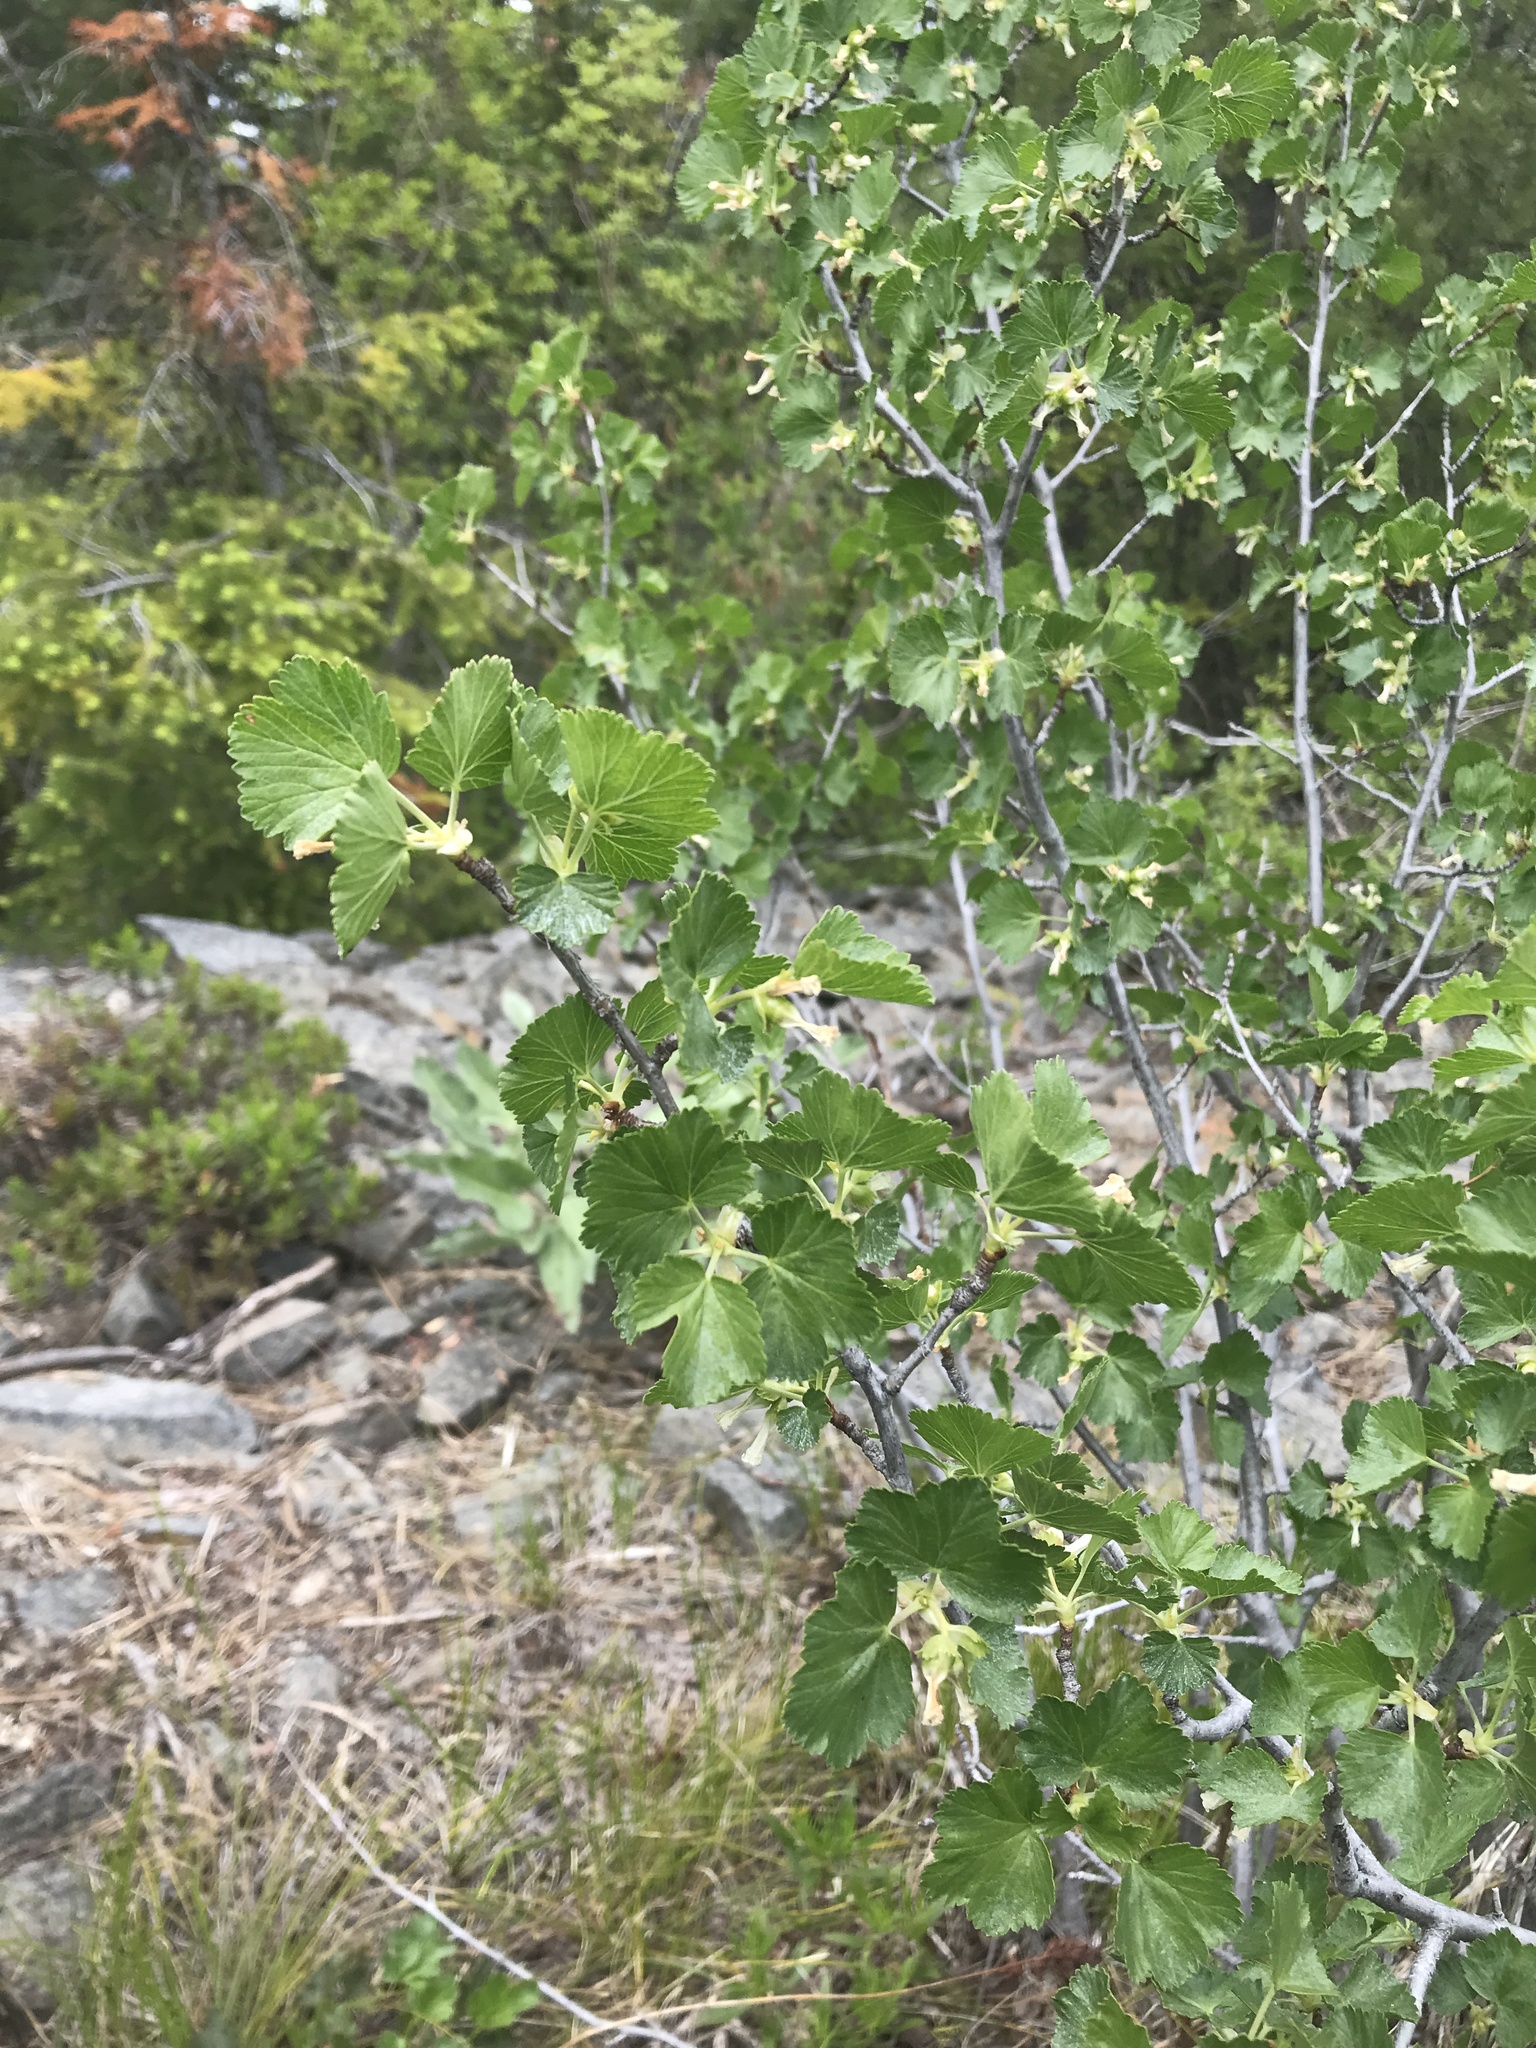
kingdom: Plantae
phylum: Tracheophyta
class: Magnoliopsida
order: Saxifragales
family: Grossulariaceae
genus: Ribes
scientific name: Ribes cereum
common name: Wax currant
